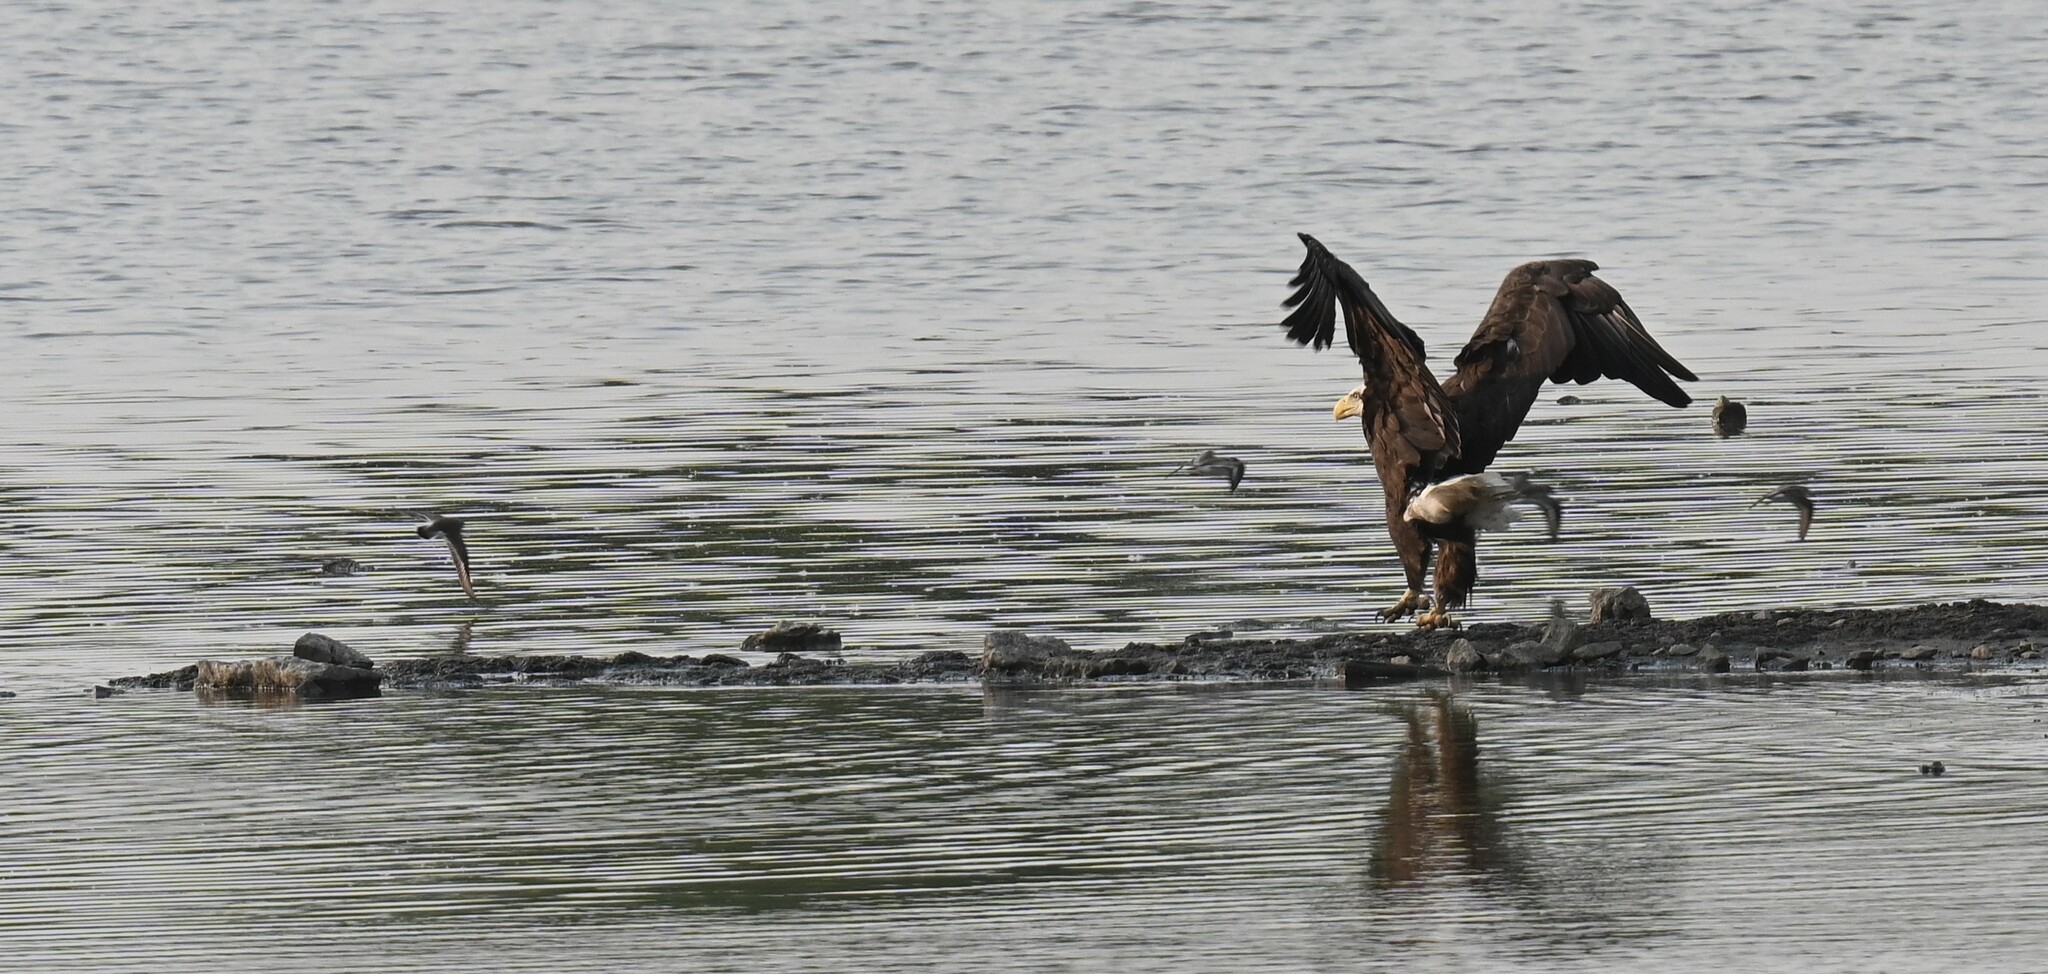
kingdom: Animalia
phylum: Chordata
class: Aves
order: Accipitriformes
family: Accipitridae
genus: Haliaeetus
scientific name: Haliaeetus leucocephalus
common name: Bald eagle
